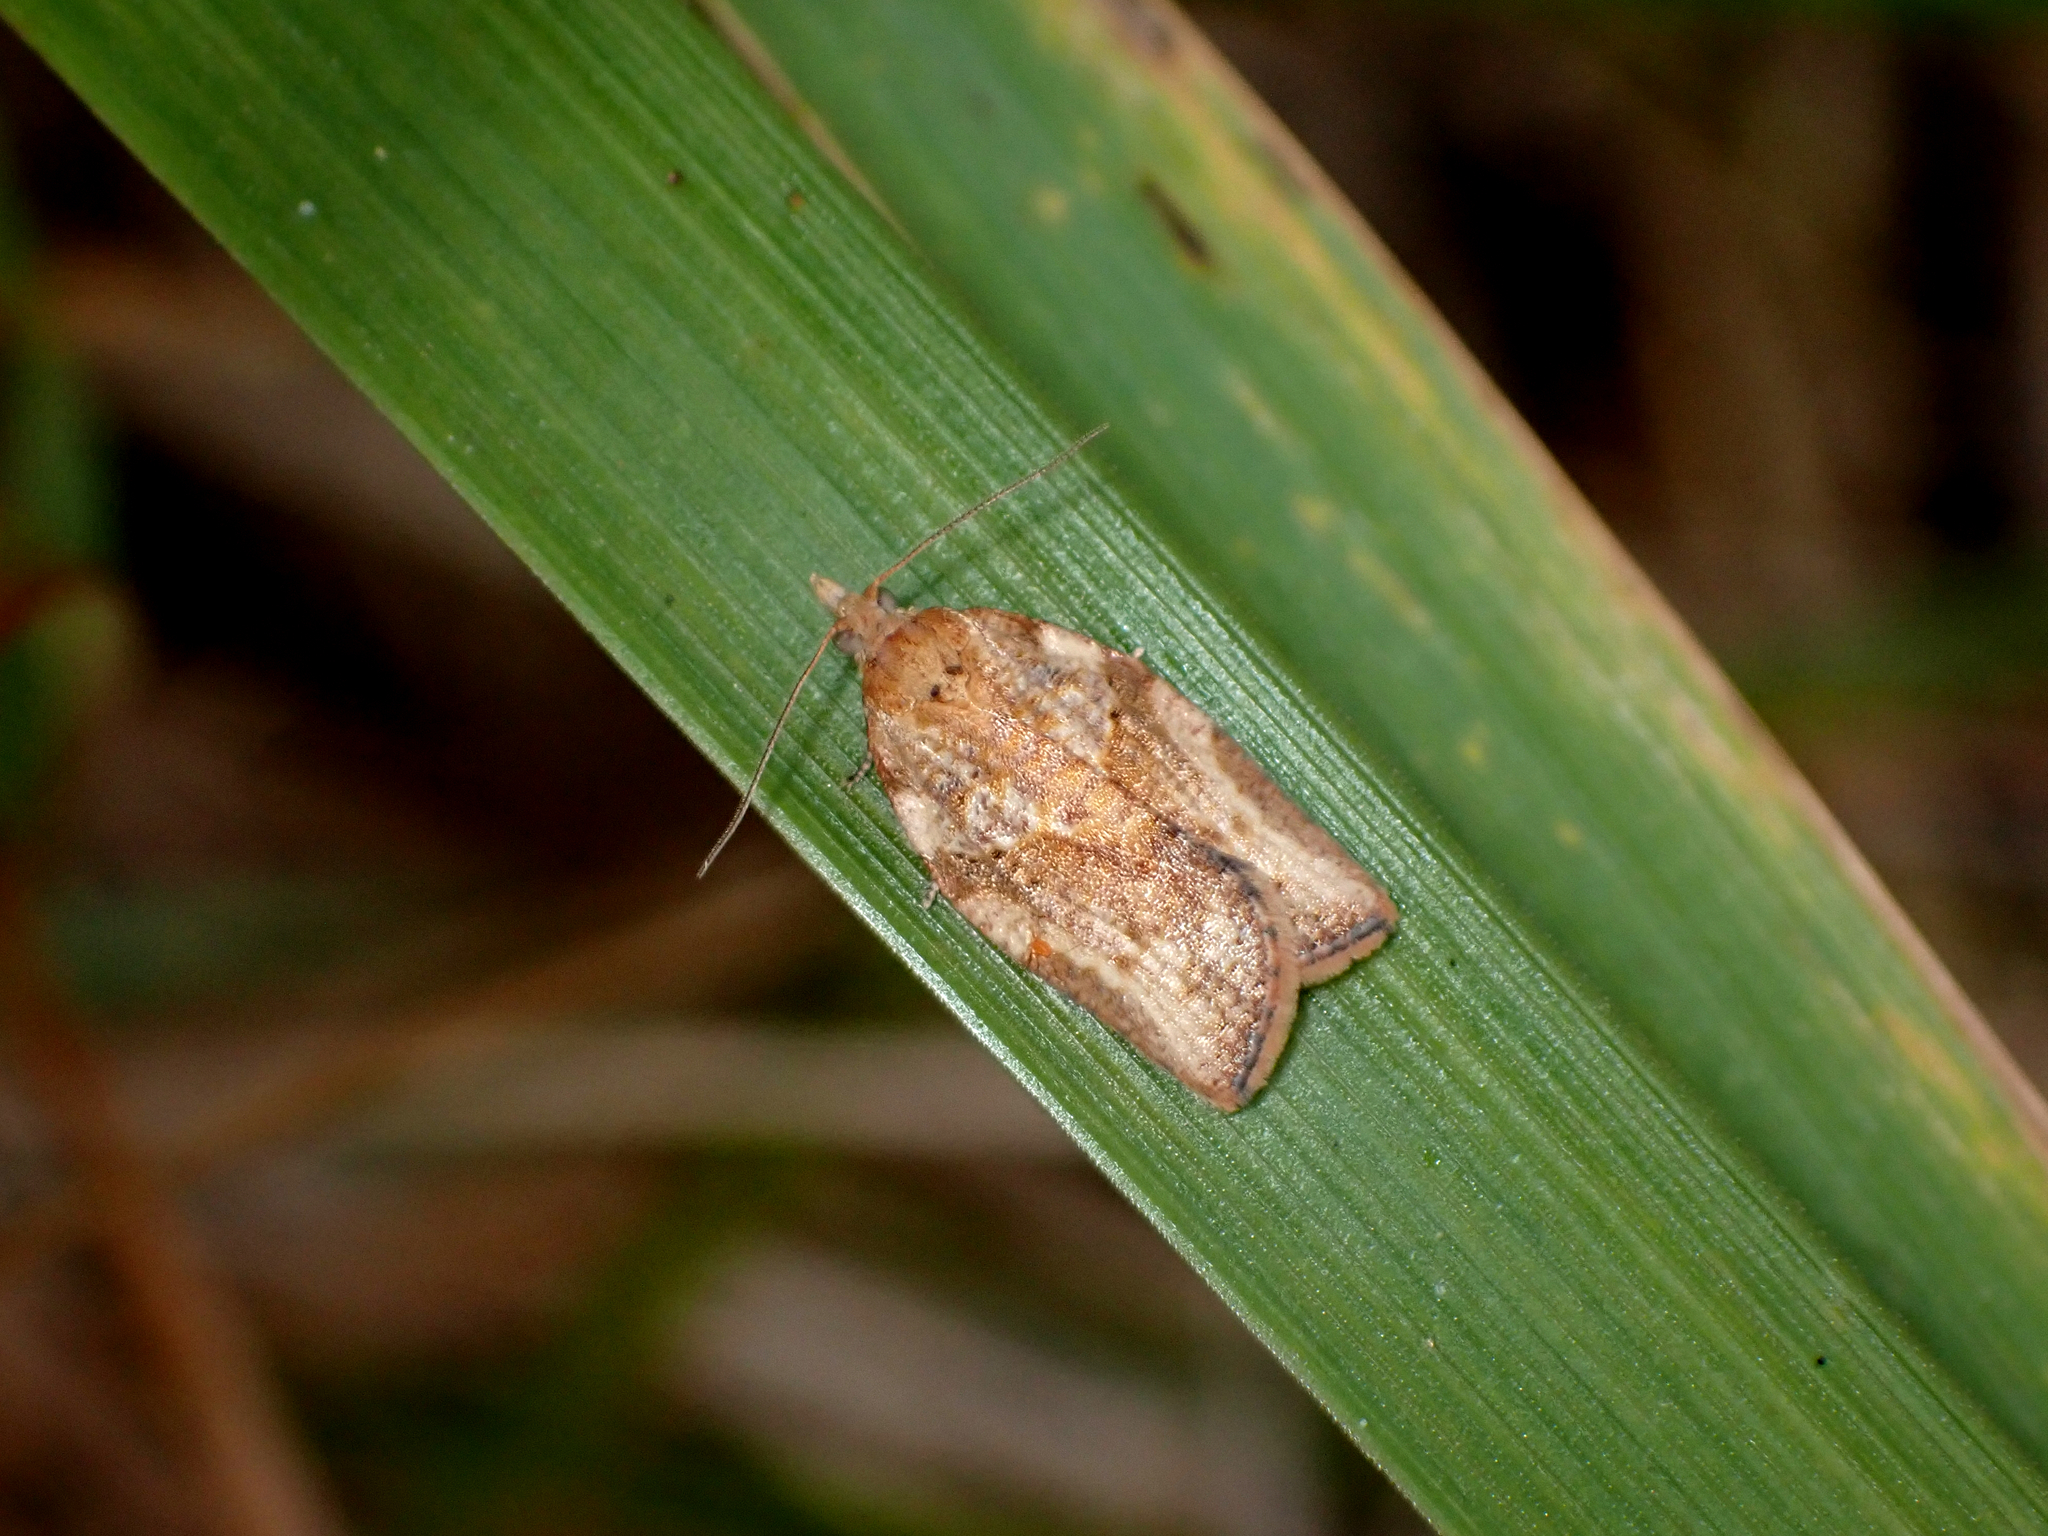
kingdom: Animalia
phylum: Arthropoda
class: Insecta
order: Lepidoptera
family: Tortricidae
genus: Epiphyas
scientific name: Epiphyas postvittana
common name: Light brown apple moth
